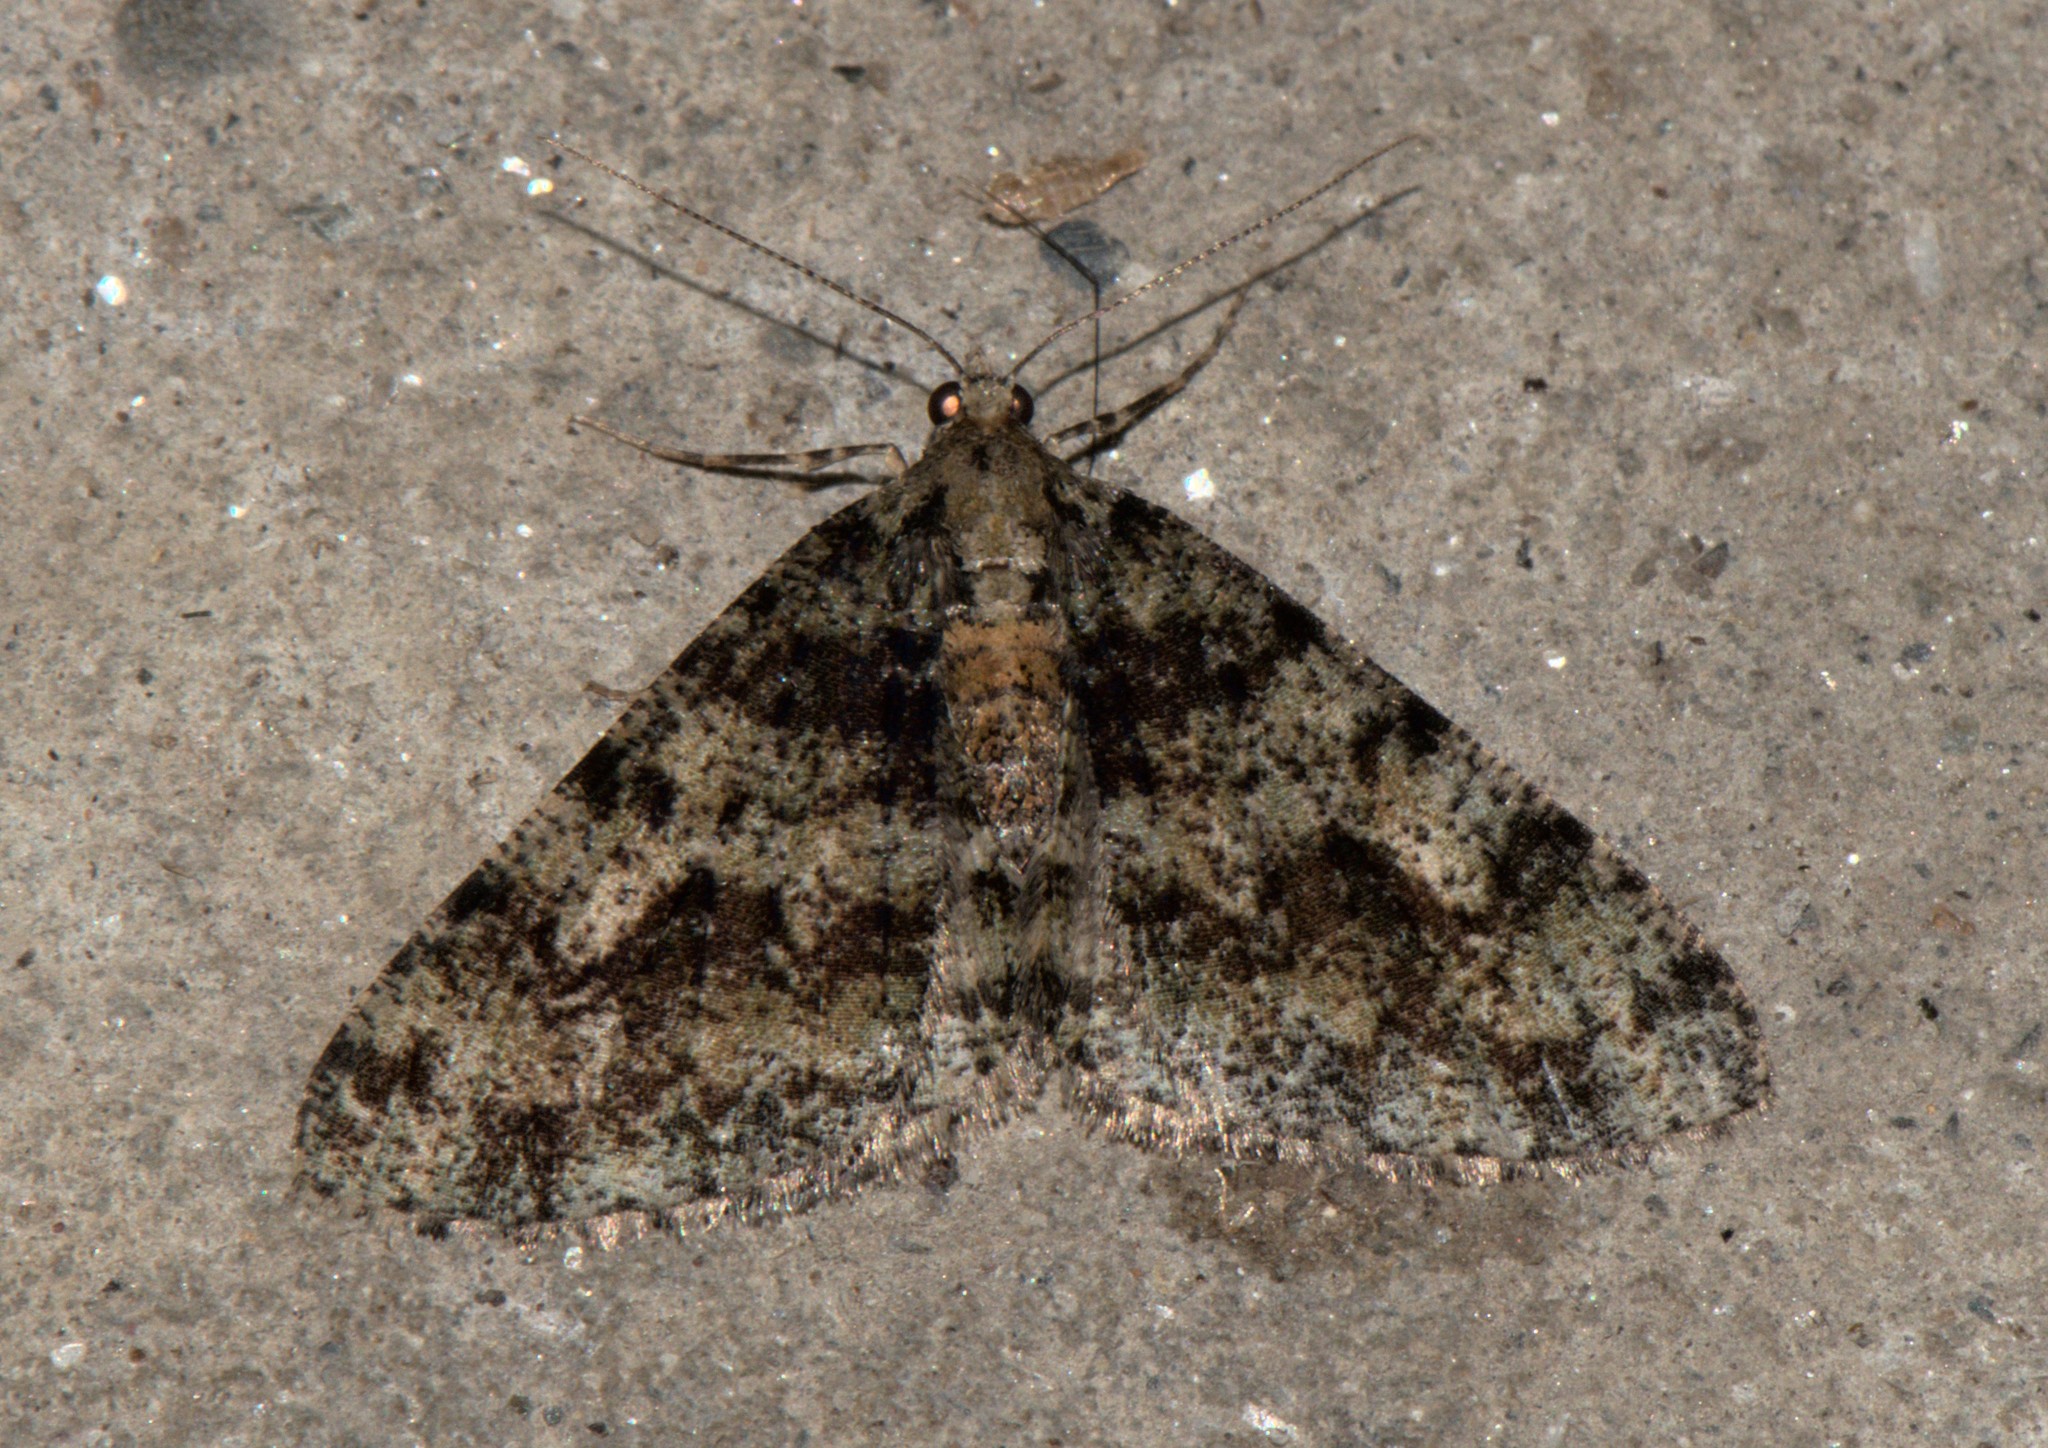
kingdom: Animalia
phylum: Arthropoda
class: Insecta
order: Lepidoptera
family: Geometridae
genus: Myrioblephara
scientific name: Myrioblephara duplexa
